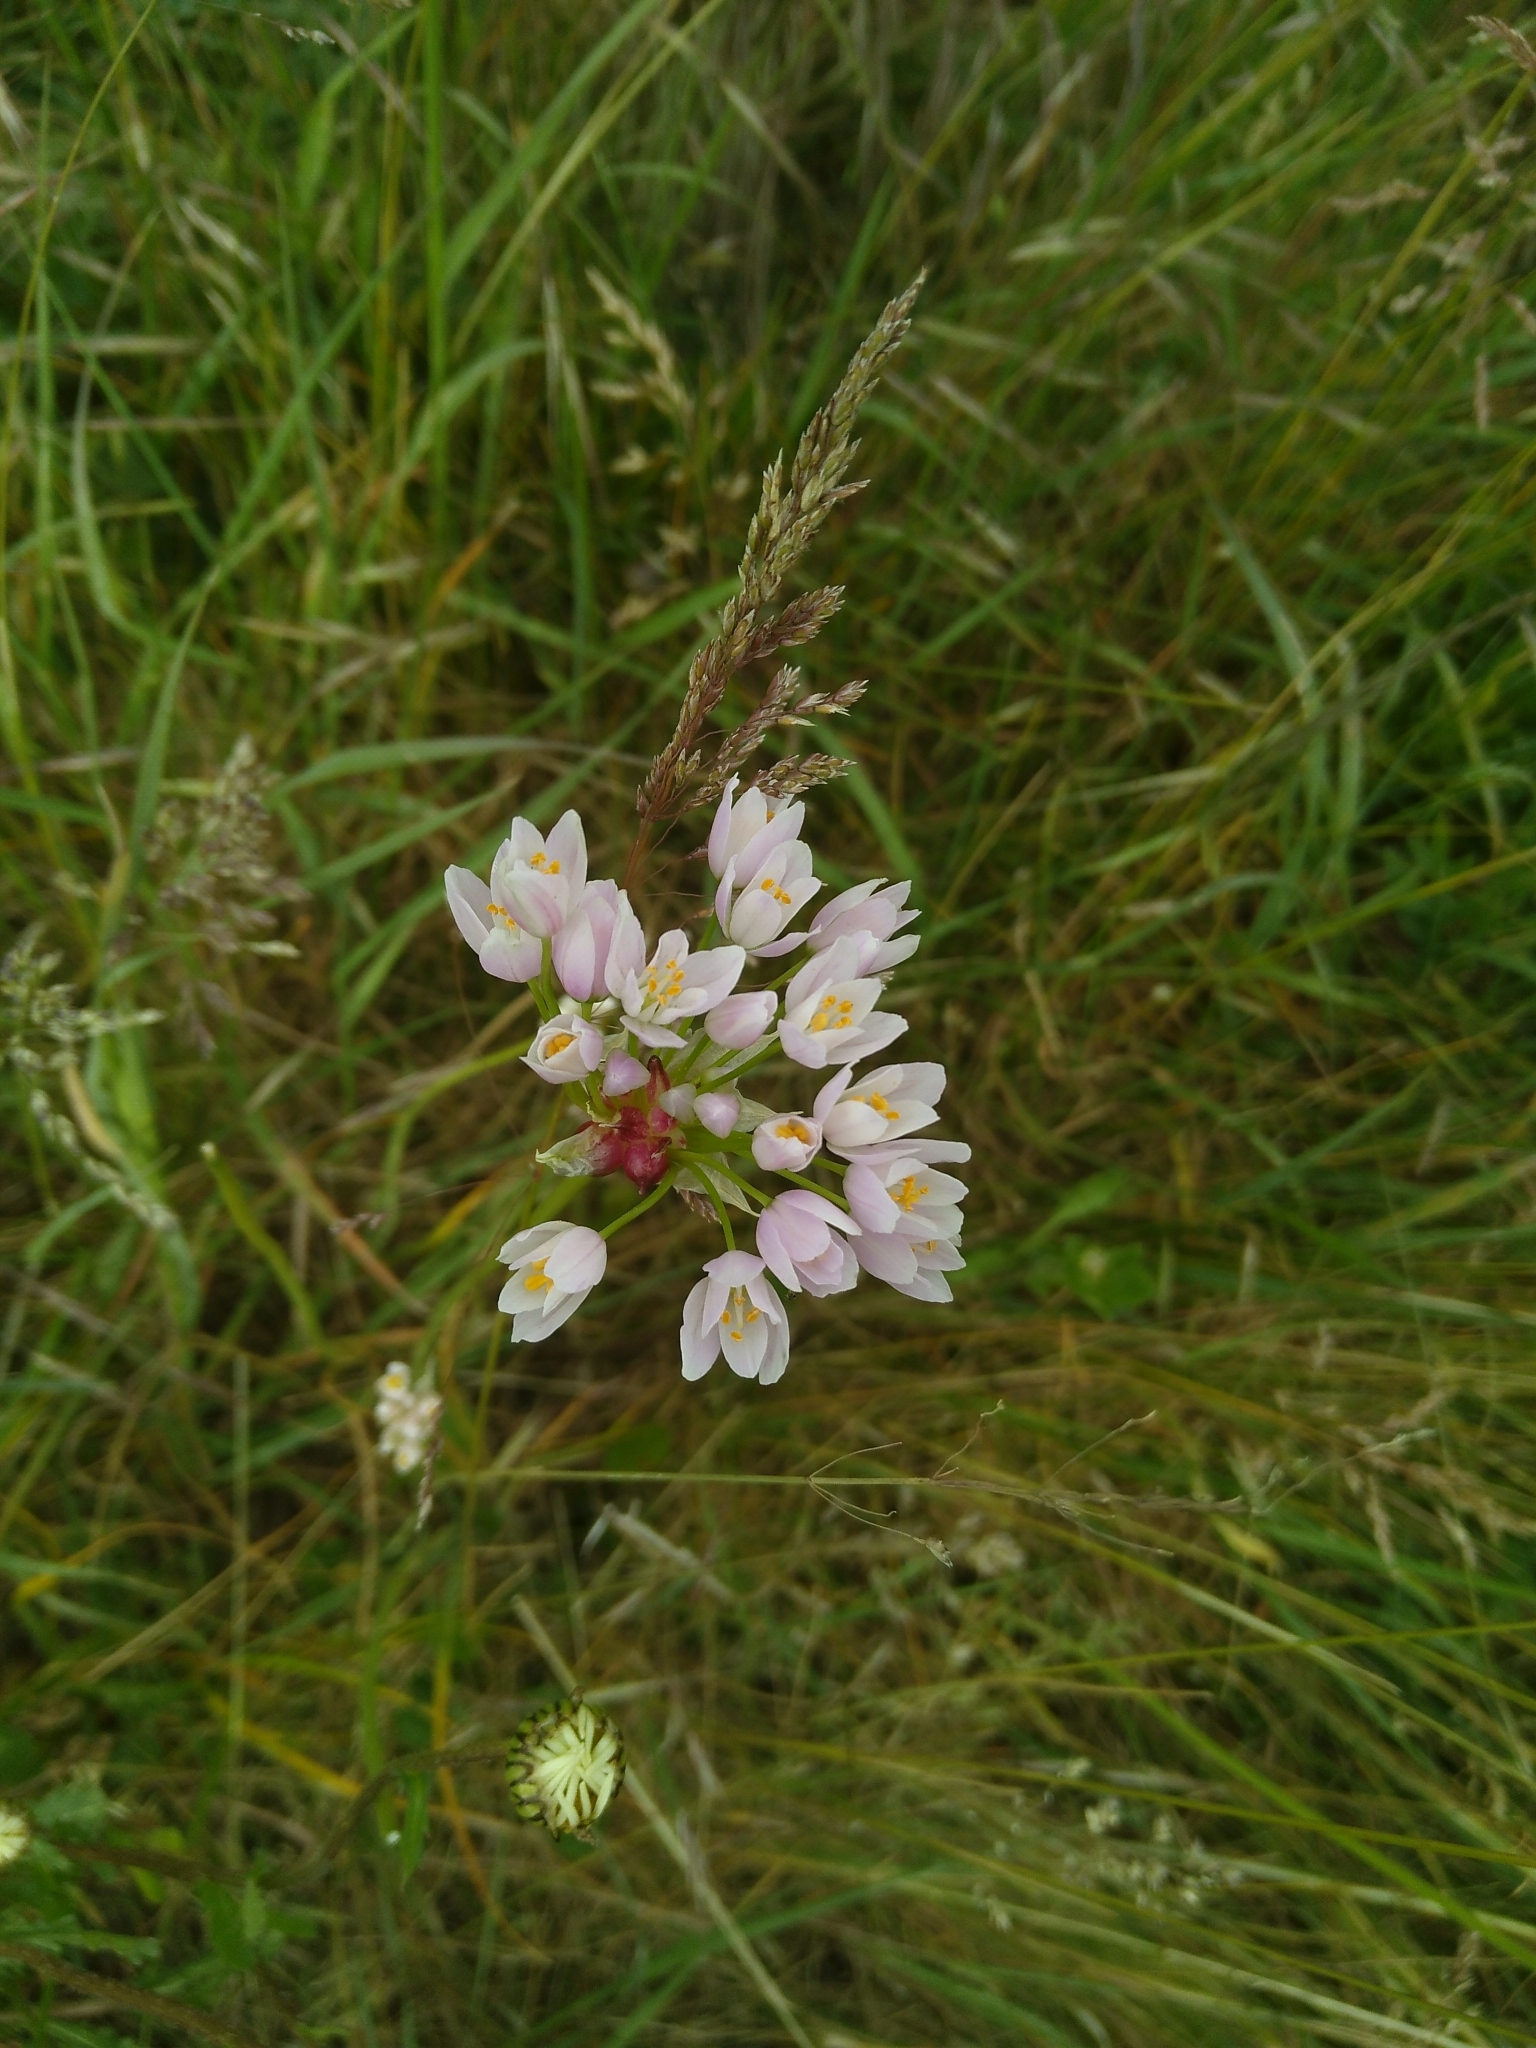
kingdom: Plantae
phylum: Tracheophyta
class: Liliopsida
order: Asparagales
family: Amaryllidaceae
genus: Allium
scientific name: Allium roseum
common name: Rosy garlic
